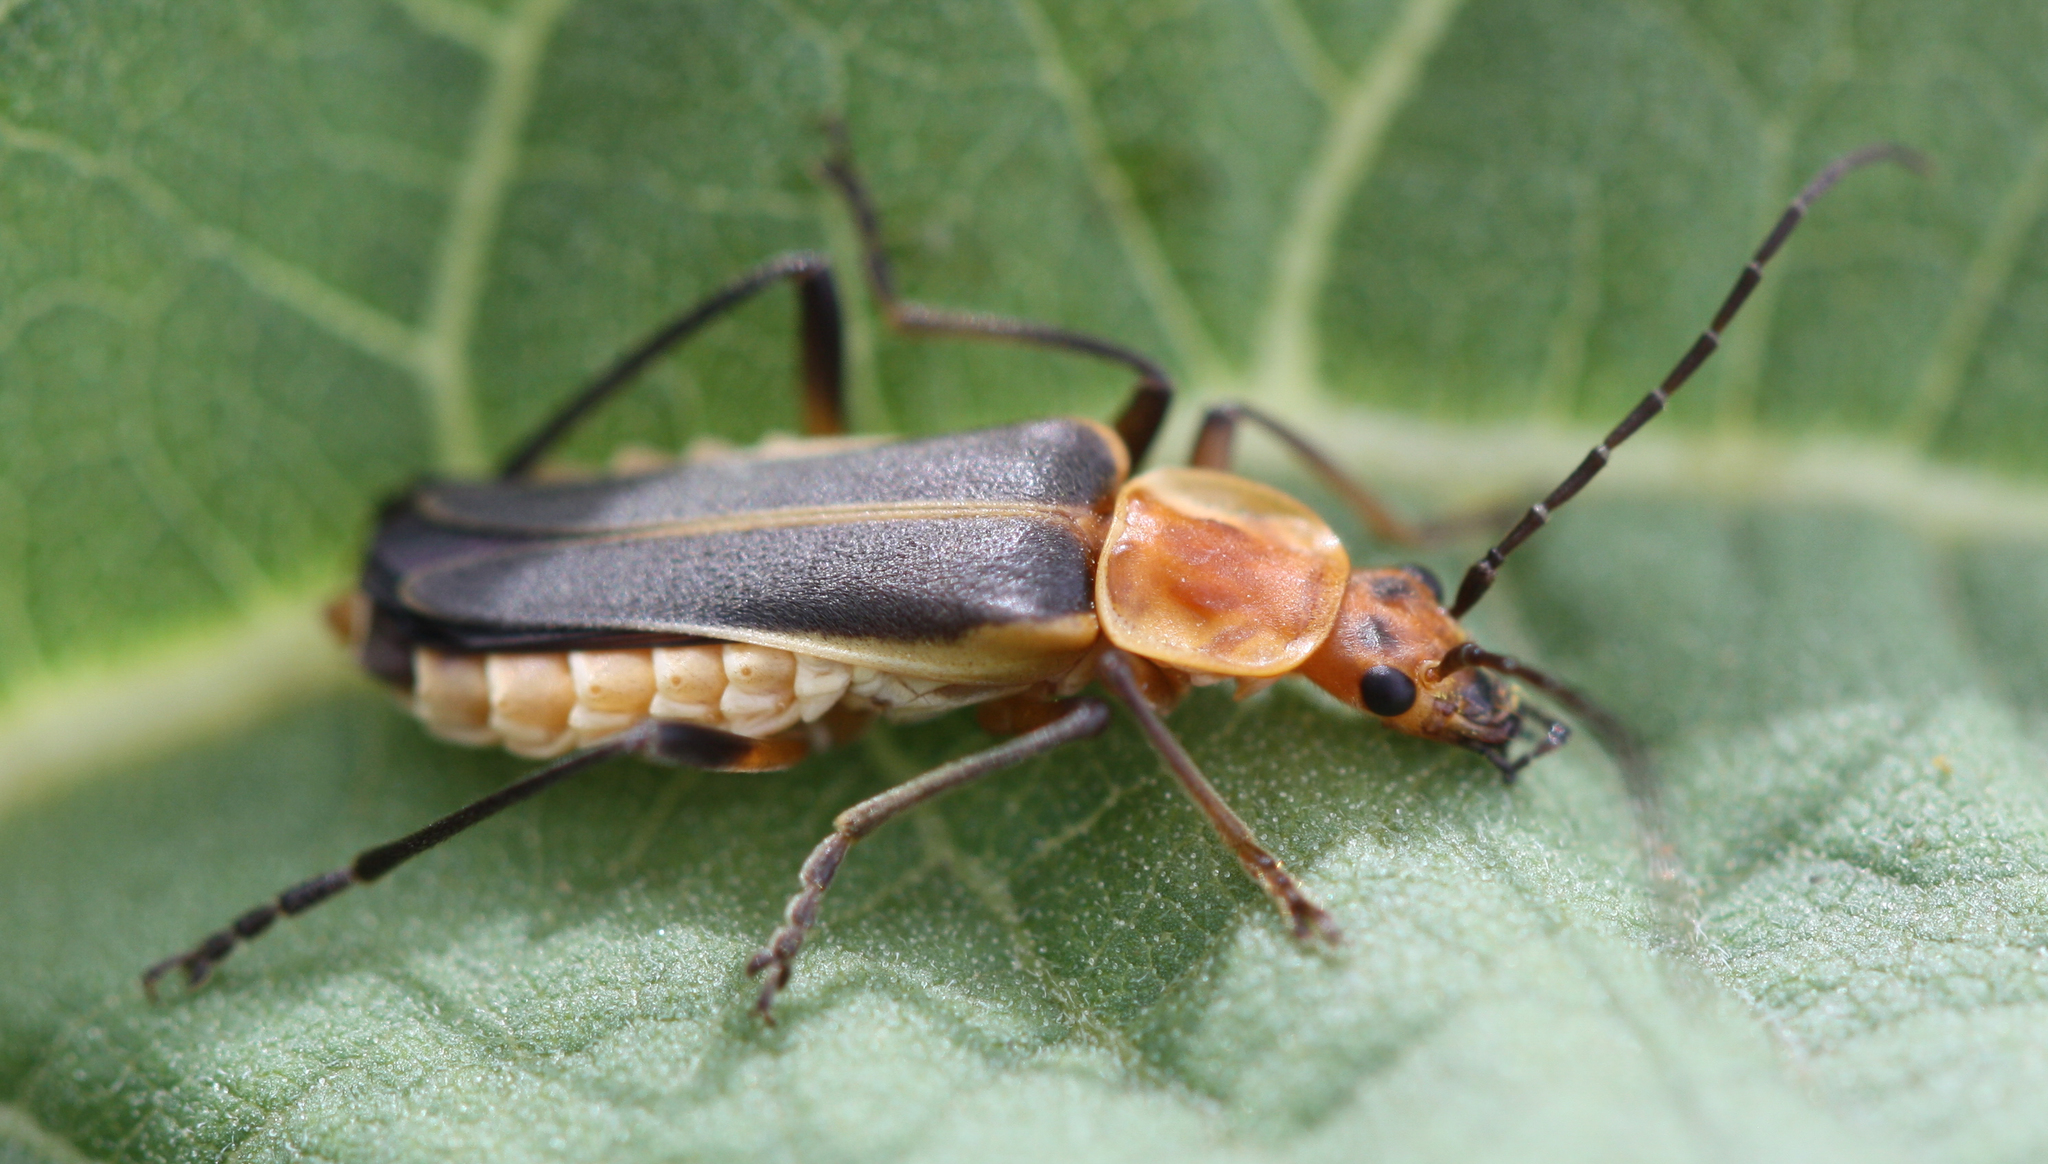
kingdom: Animalia
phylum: Arthropoda
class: Insecta
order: Coleoptera
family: Cantharidae
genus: Chauliognathus
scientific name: Chauliognathus obscurus
